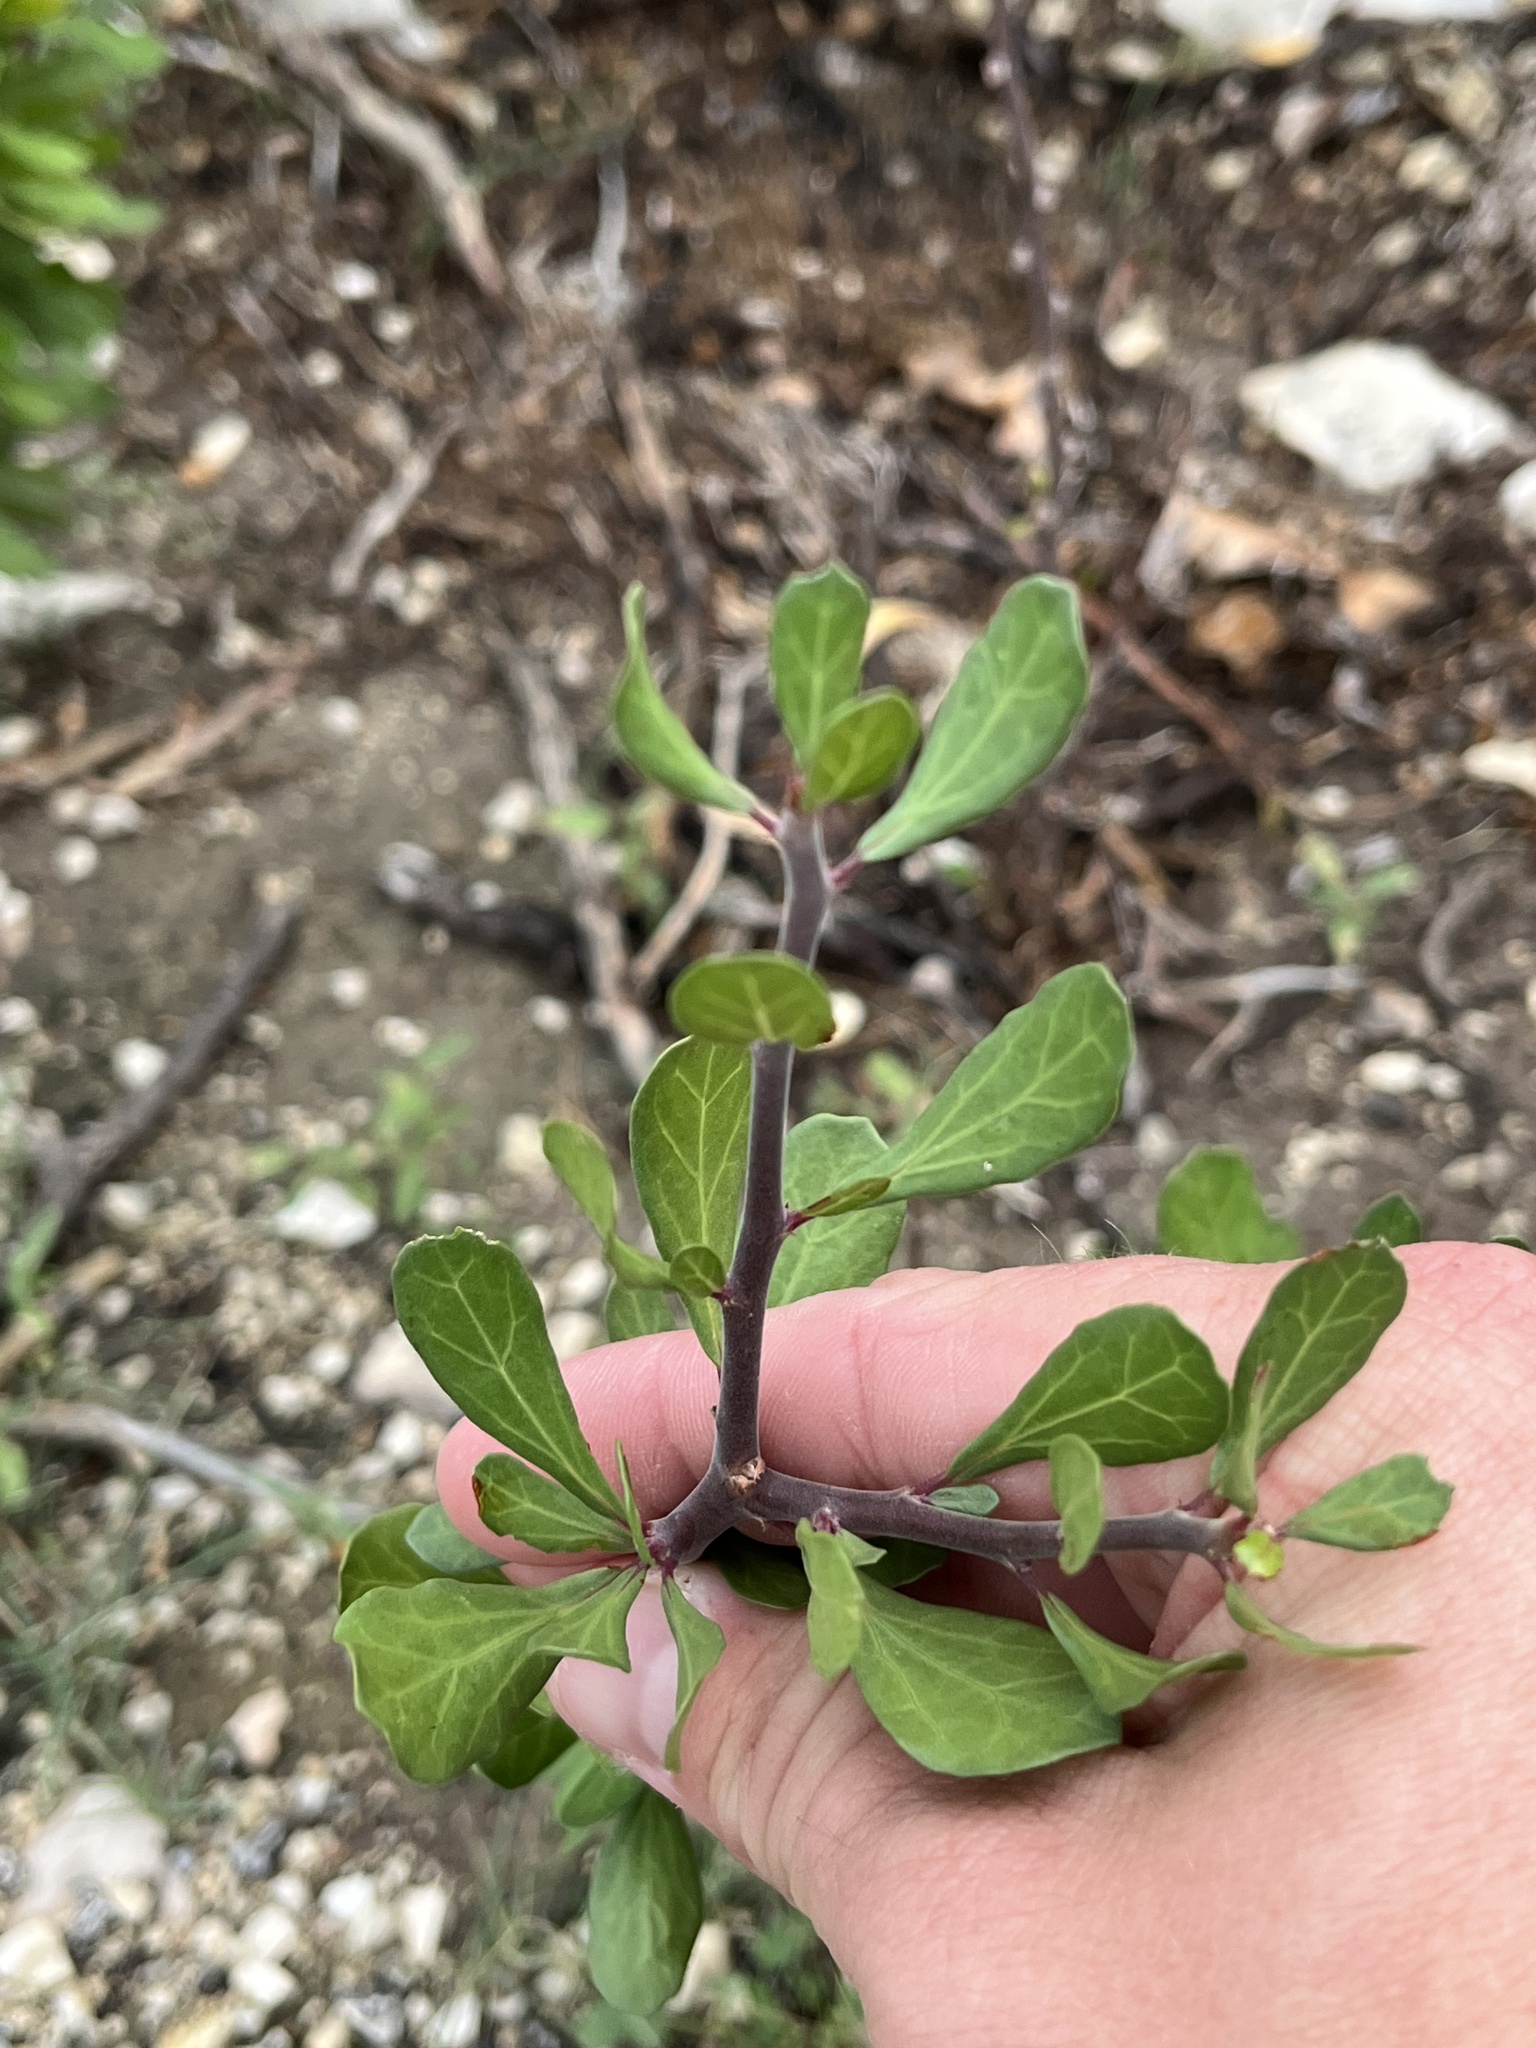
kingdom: Plantae
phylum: Tracheophyta
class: Magnoliopsida
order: Malpighiales
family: Euphorbiaceae
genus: Jatropha
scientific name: Jatropha dioica
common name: Leatherstem
